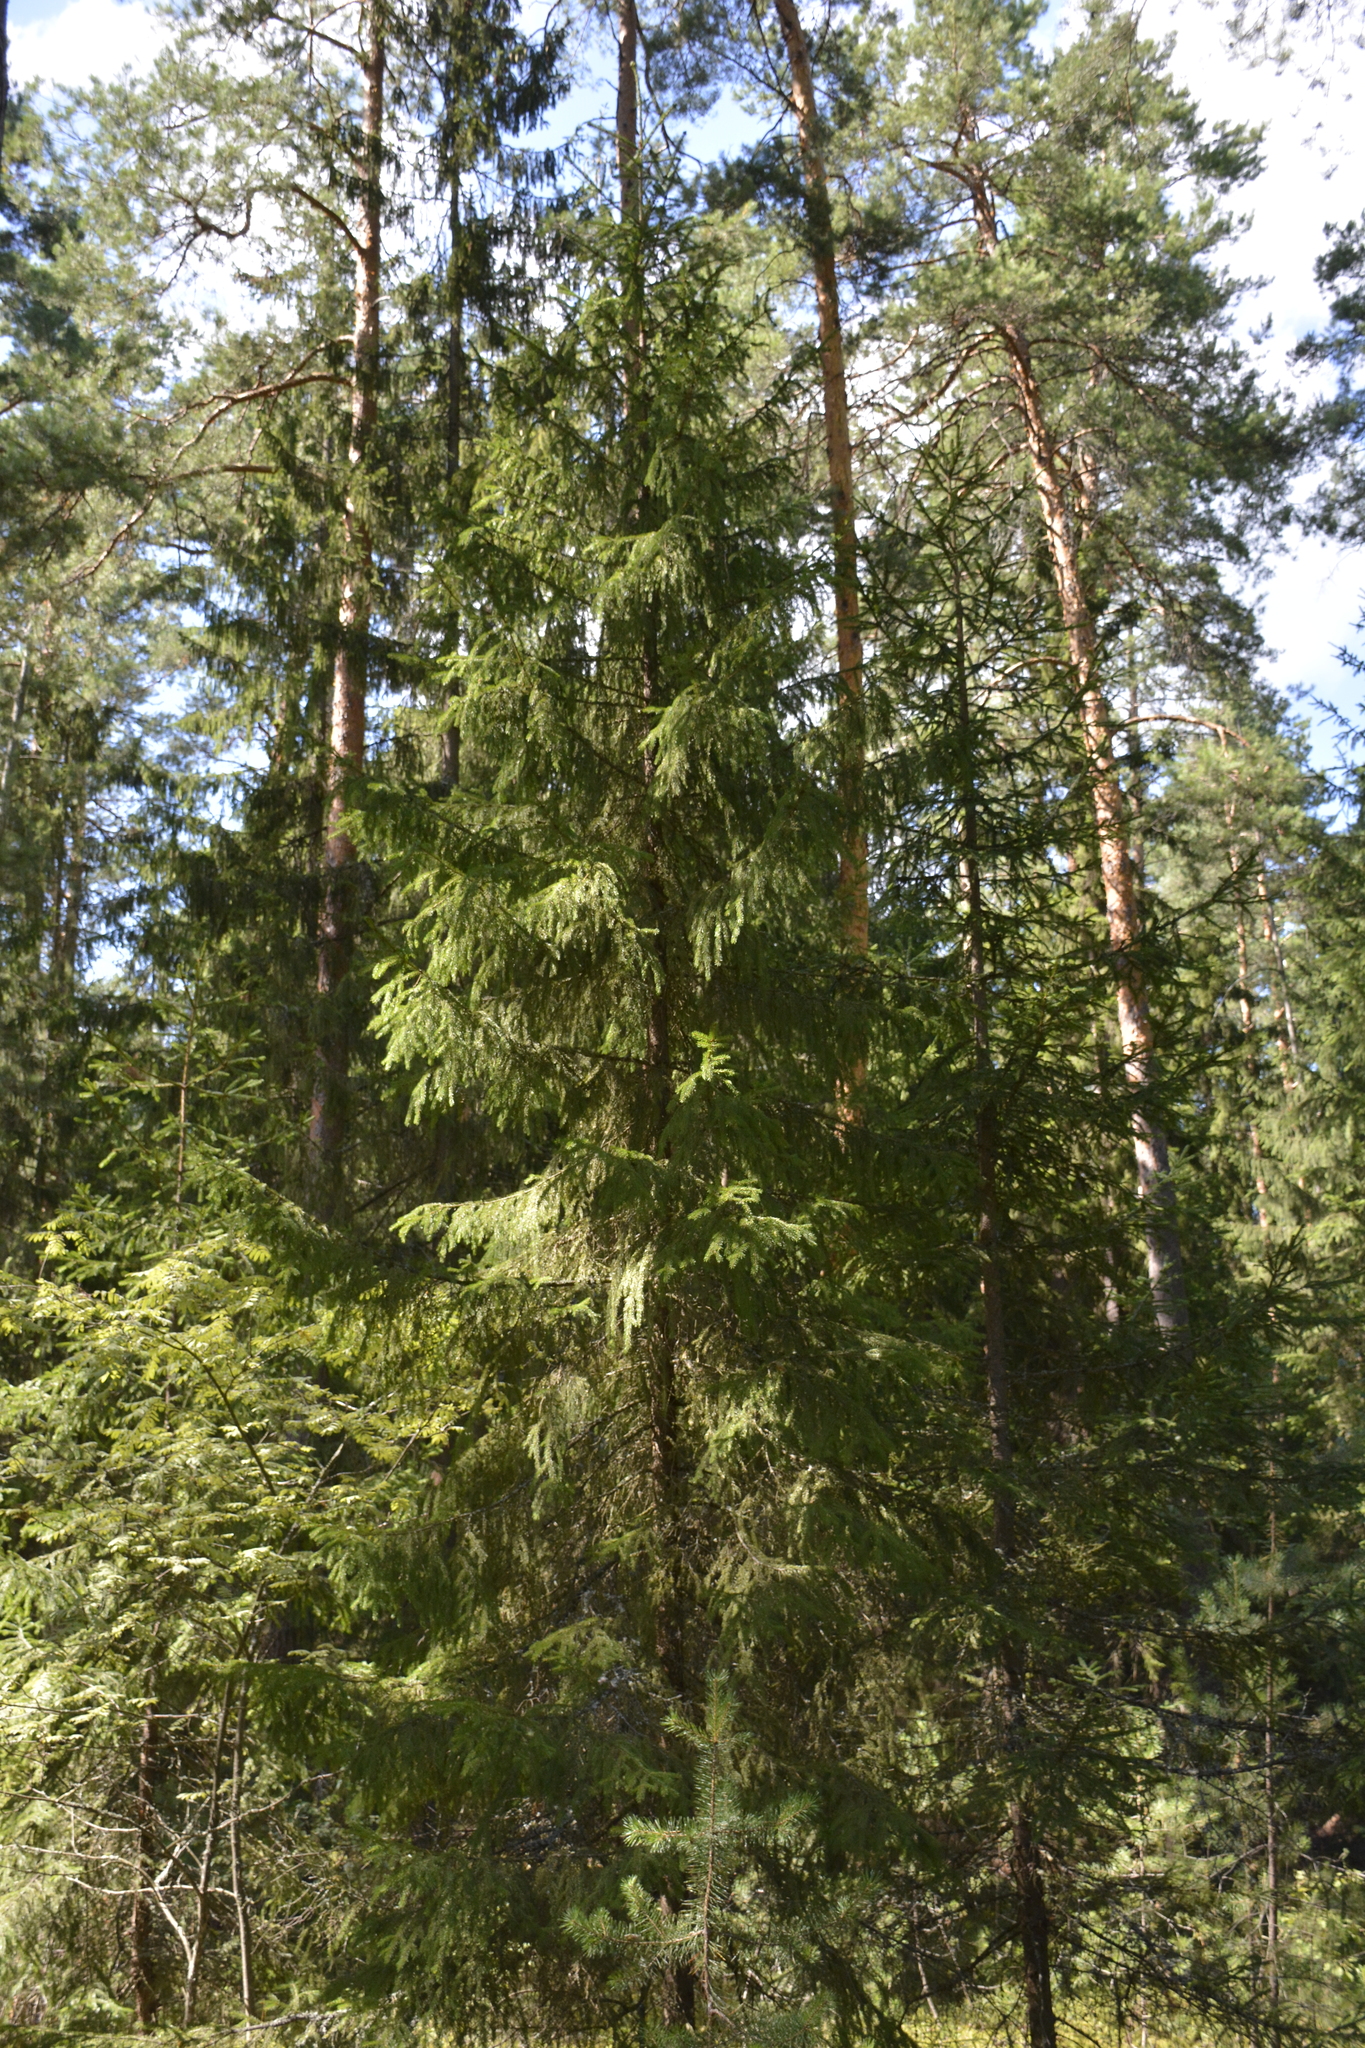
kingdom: Plantae
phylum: Tracheophyta
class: Pinopsida
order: Pinales
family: Pinaceae
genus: Picea
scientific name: Picea abies
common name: Norway spruce
